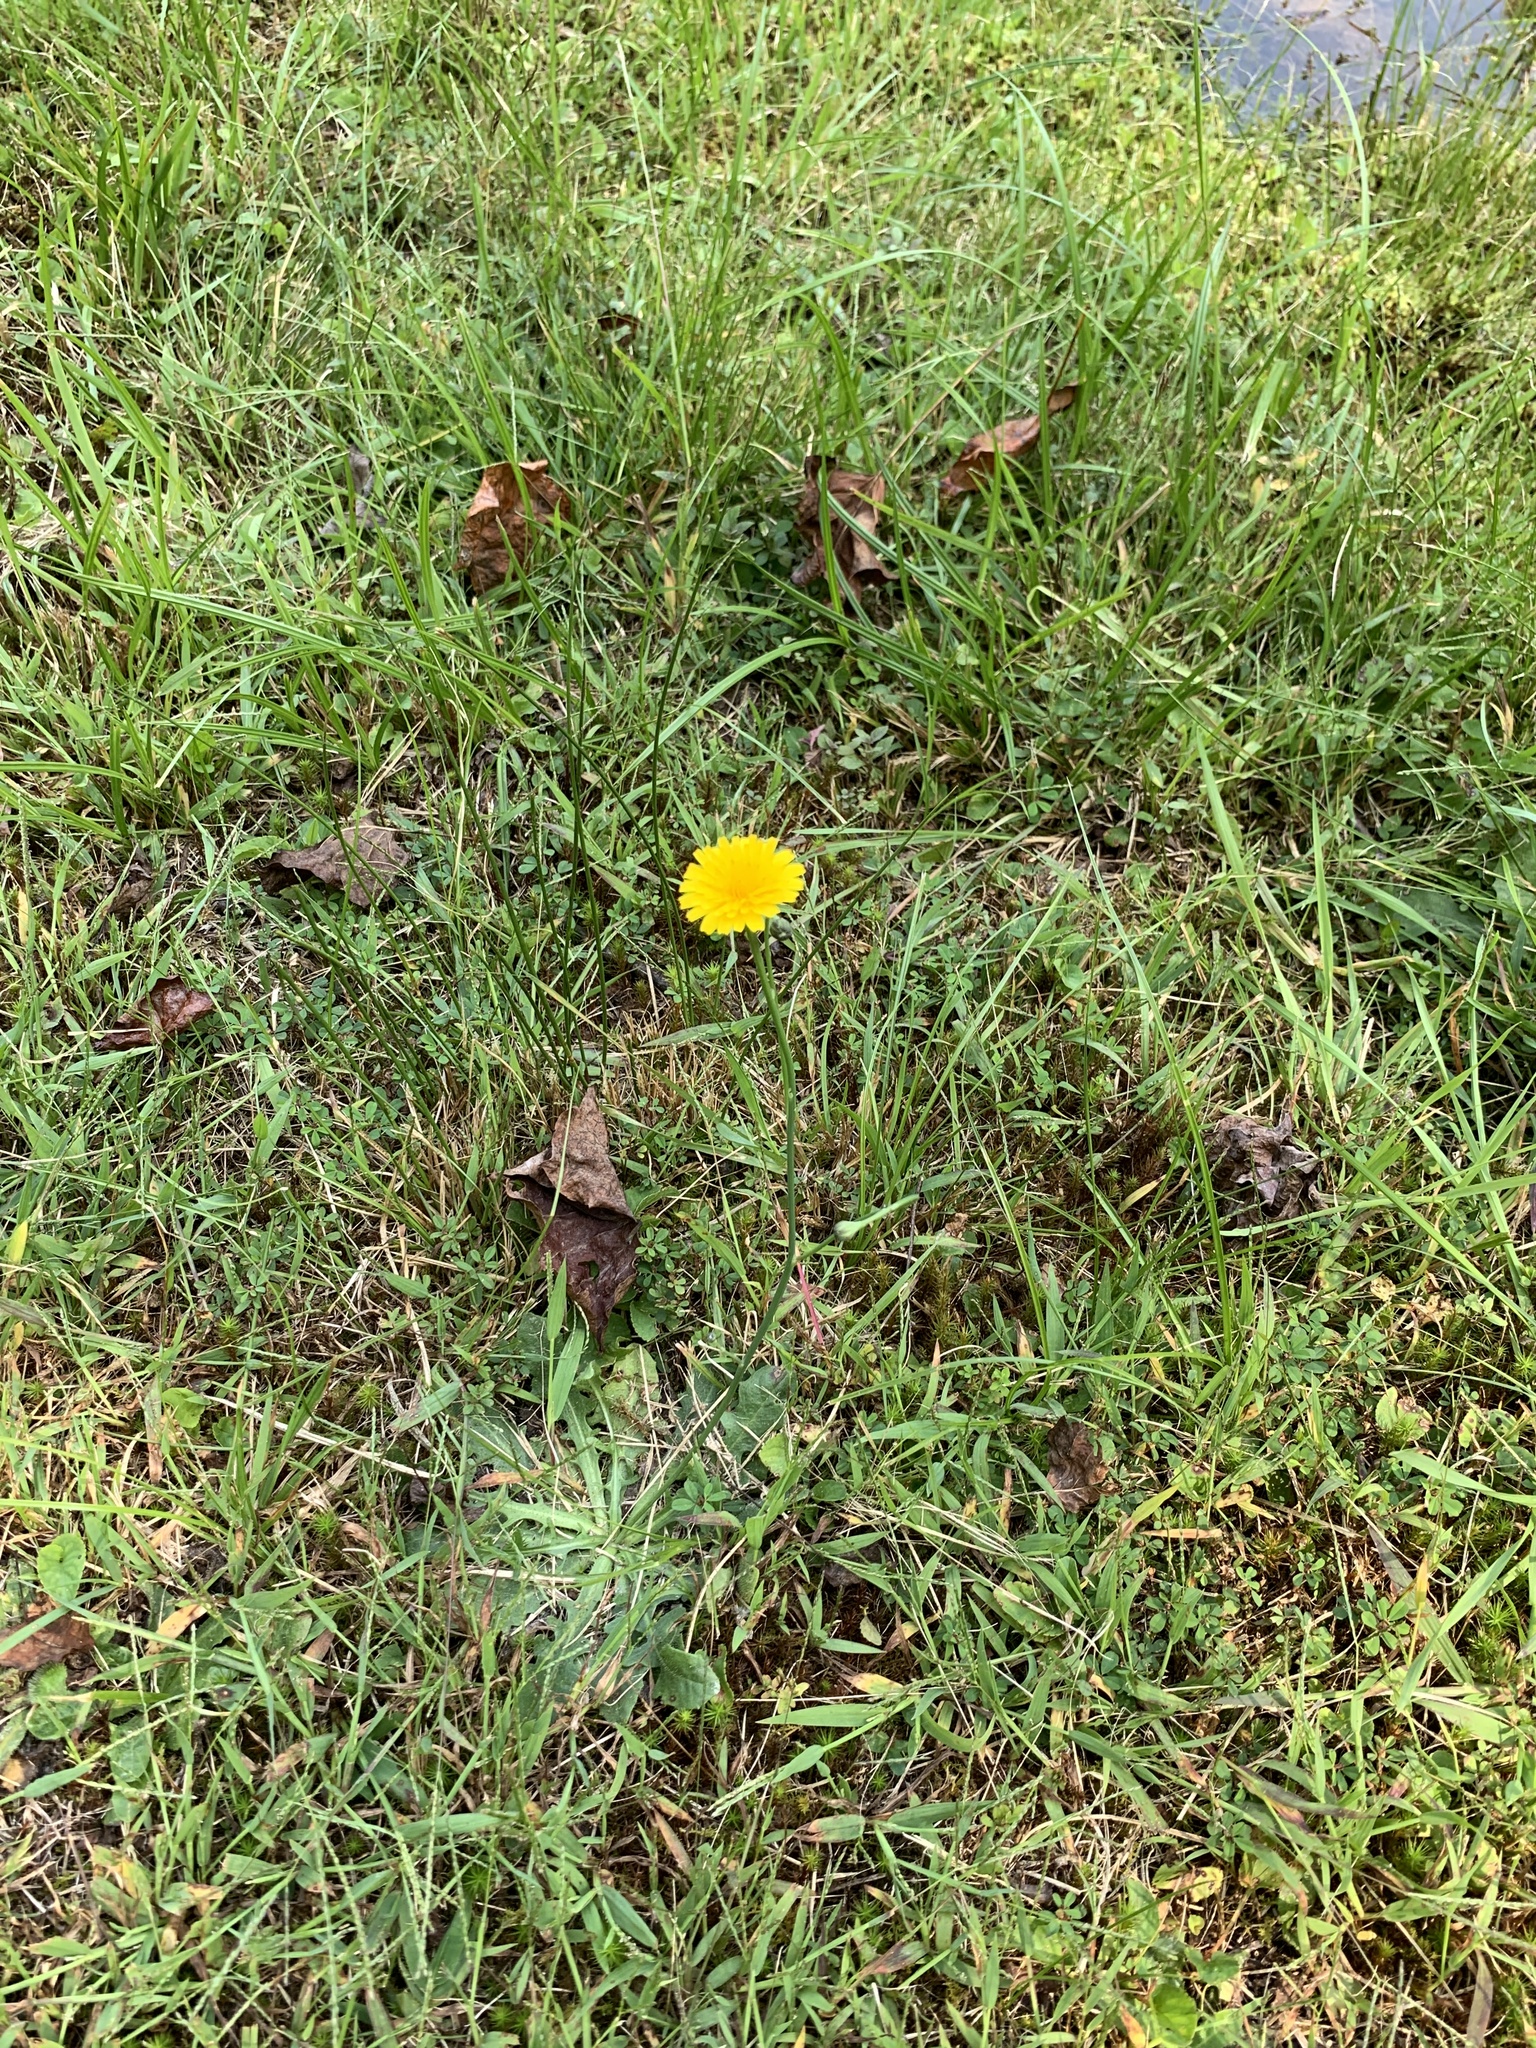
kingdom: Plantae
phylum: Tracheophyta
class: Magnoliopsida
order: Asterales
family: Asteraceae
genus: Hypochaeris
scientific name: Hypochaeris radicata
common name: Flatweed
